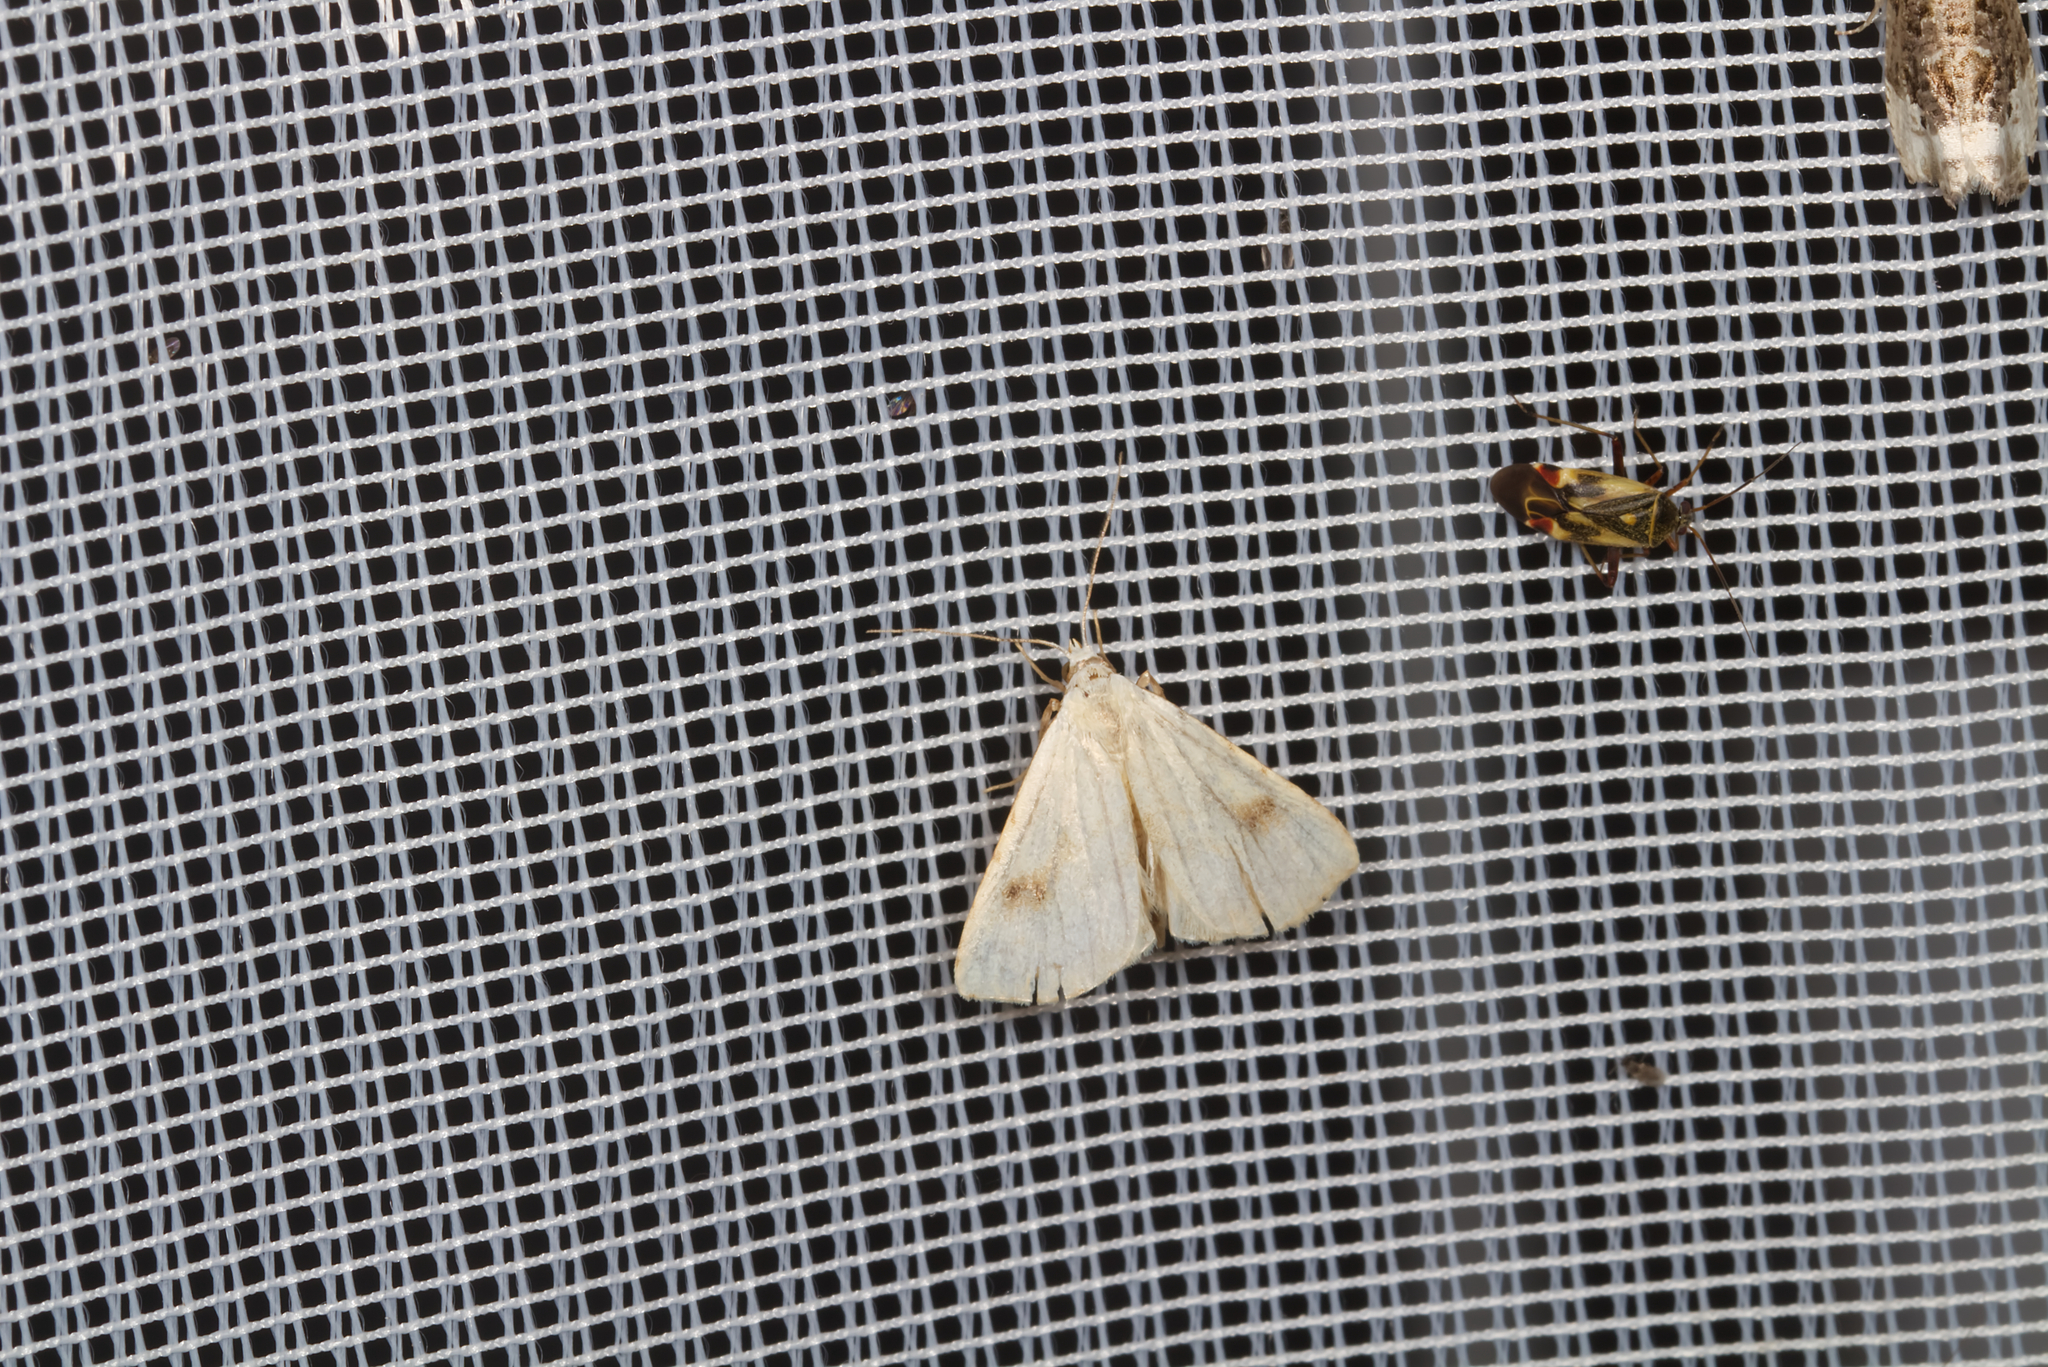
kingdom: Animalia
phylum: Arthropoda
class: Insecta
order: Lepidoptera
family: Erebidae
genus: Rivula
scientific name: Rivula sericealis
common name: Straw dot
